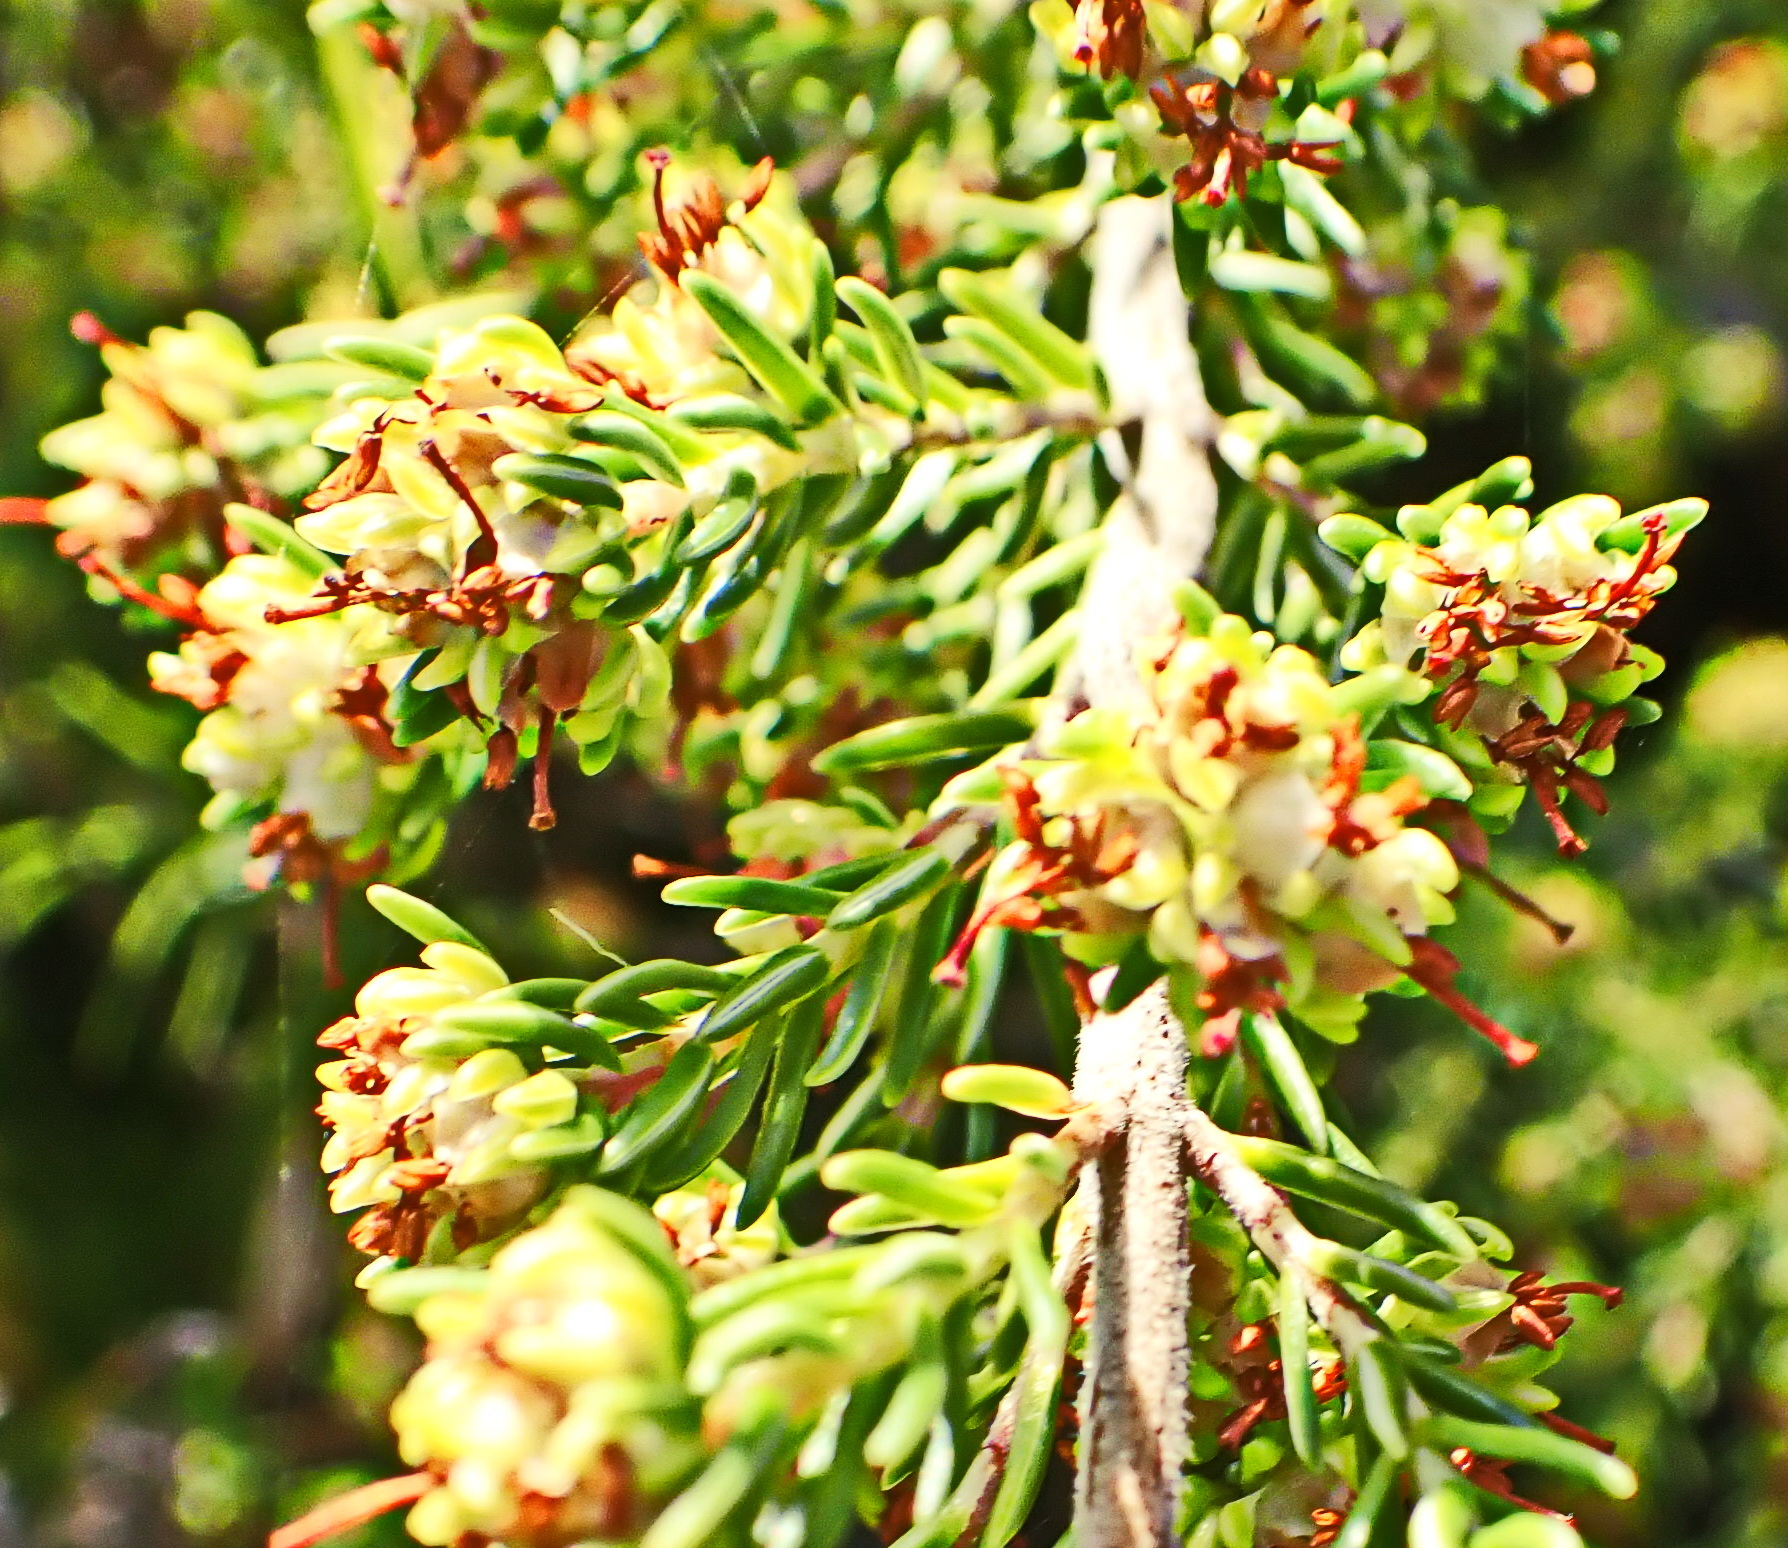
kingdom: Plantae
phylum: Tracheophyta
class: Magnoliopsida
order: Ericales
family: Ericaceae
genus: Erica
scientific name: Erica glumiflora
